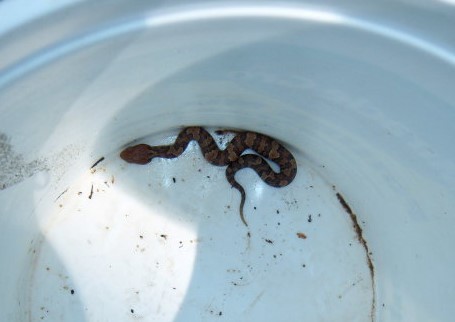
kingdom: Animalia
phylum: Chordata
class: Squamata
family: Viperidae
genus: Agkistrodon
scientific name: Agkistrodon piscivorus
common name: Cottonmouth
